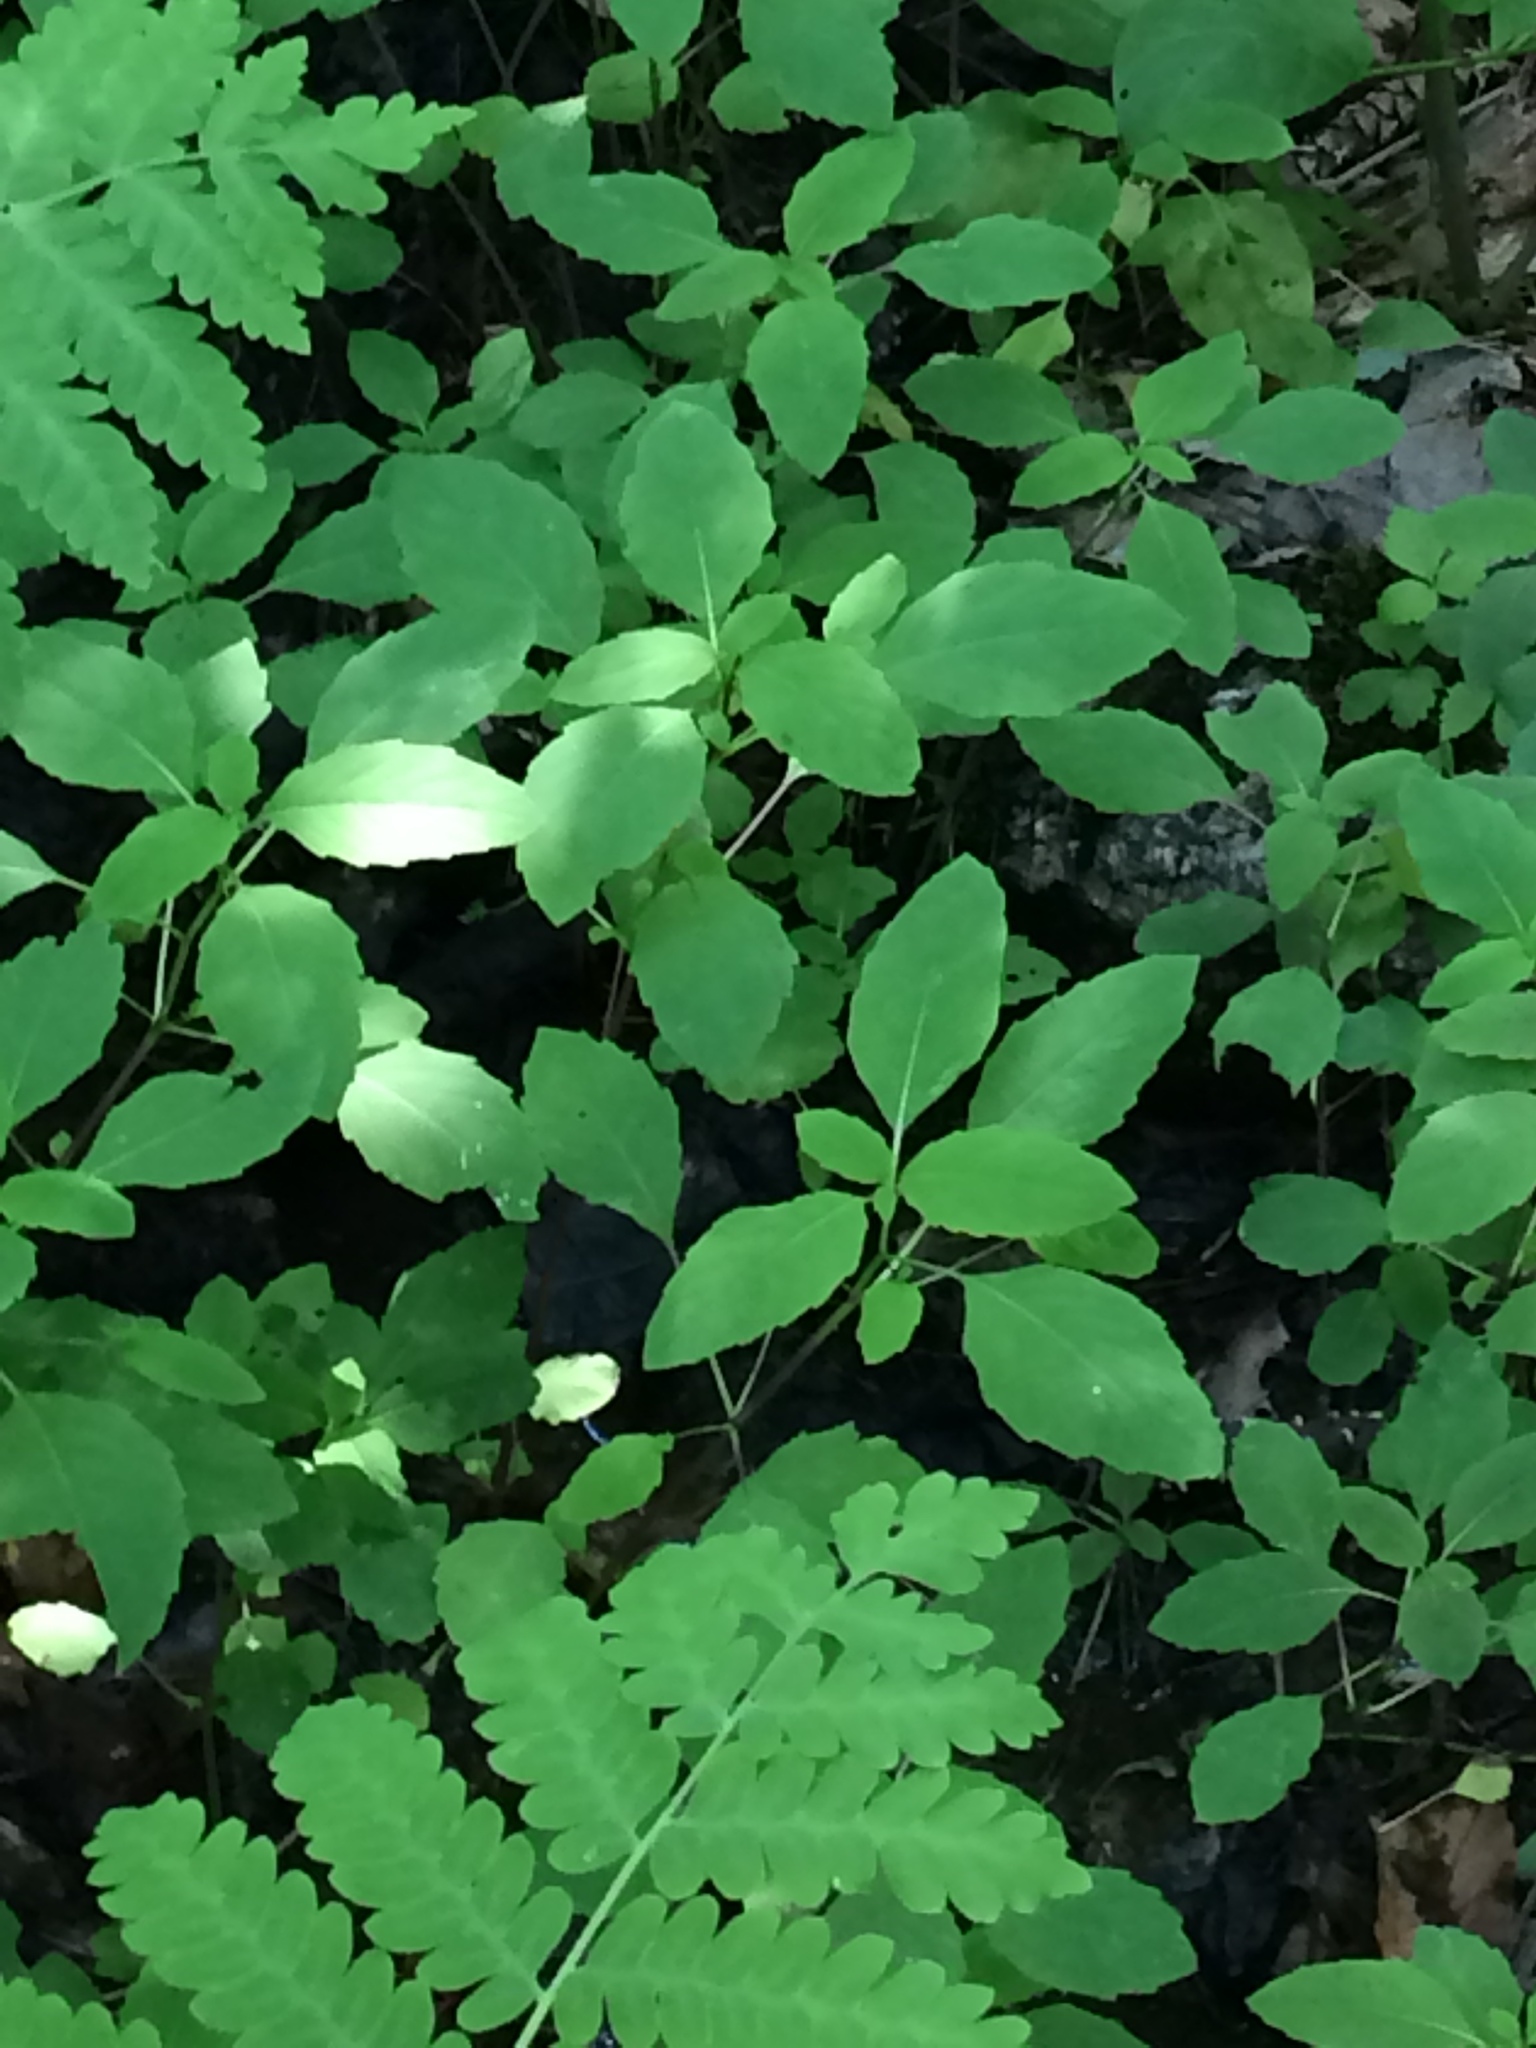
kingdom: Plantae
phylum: Tracheophyta
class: Magnoliopsida
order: Ericales
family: Balsaminaceae
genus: Impatiens
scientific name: Impatiens capensis
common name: Orange balsam
